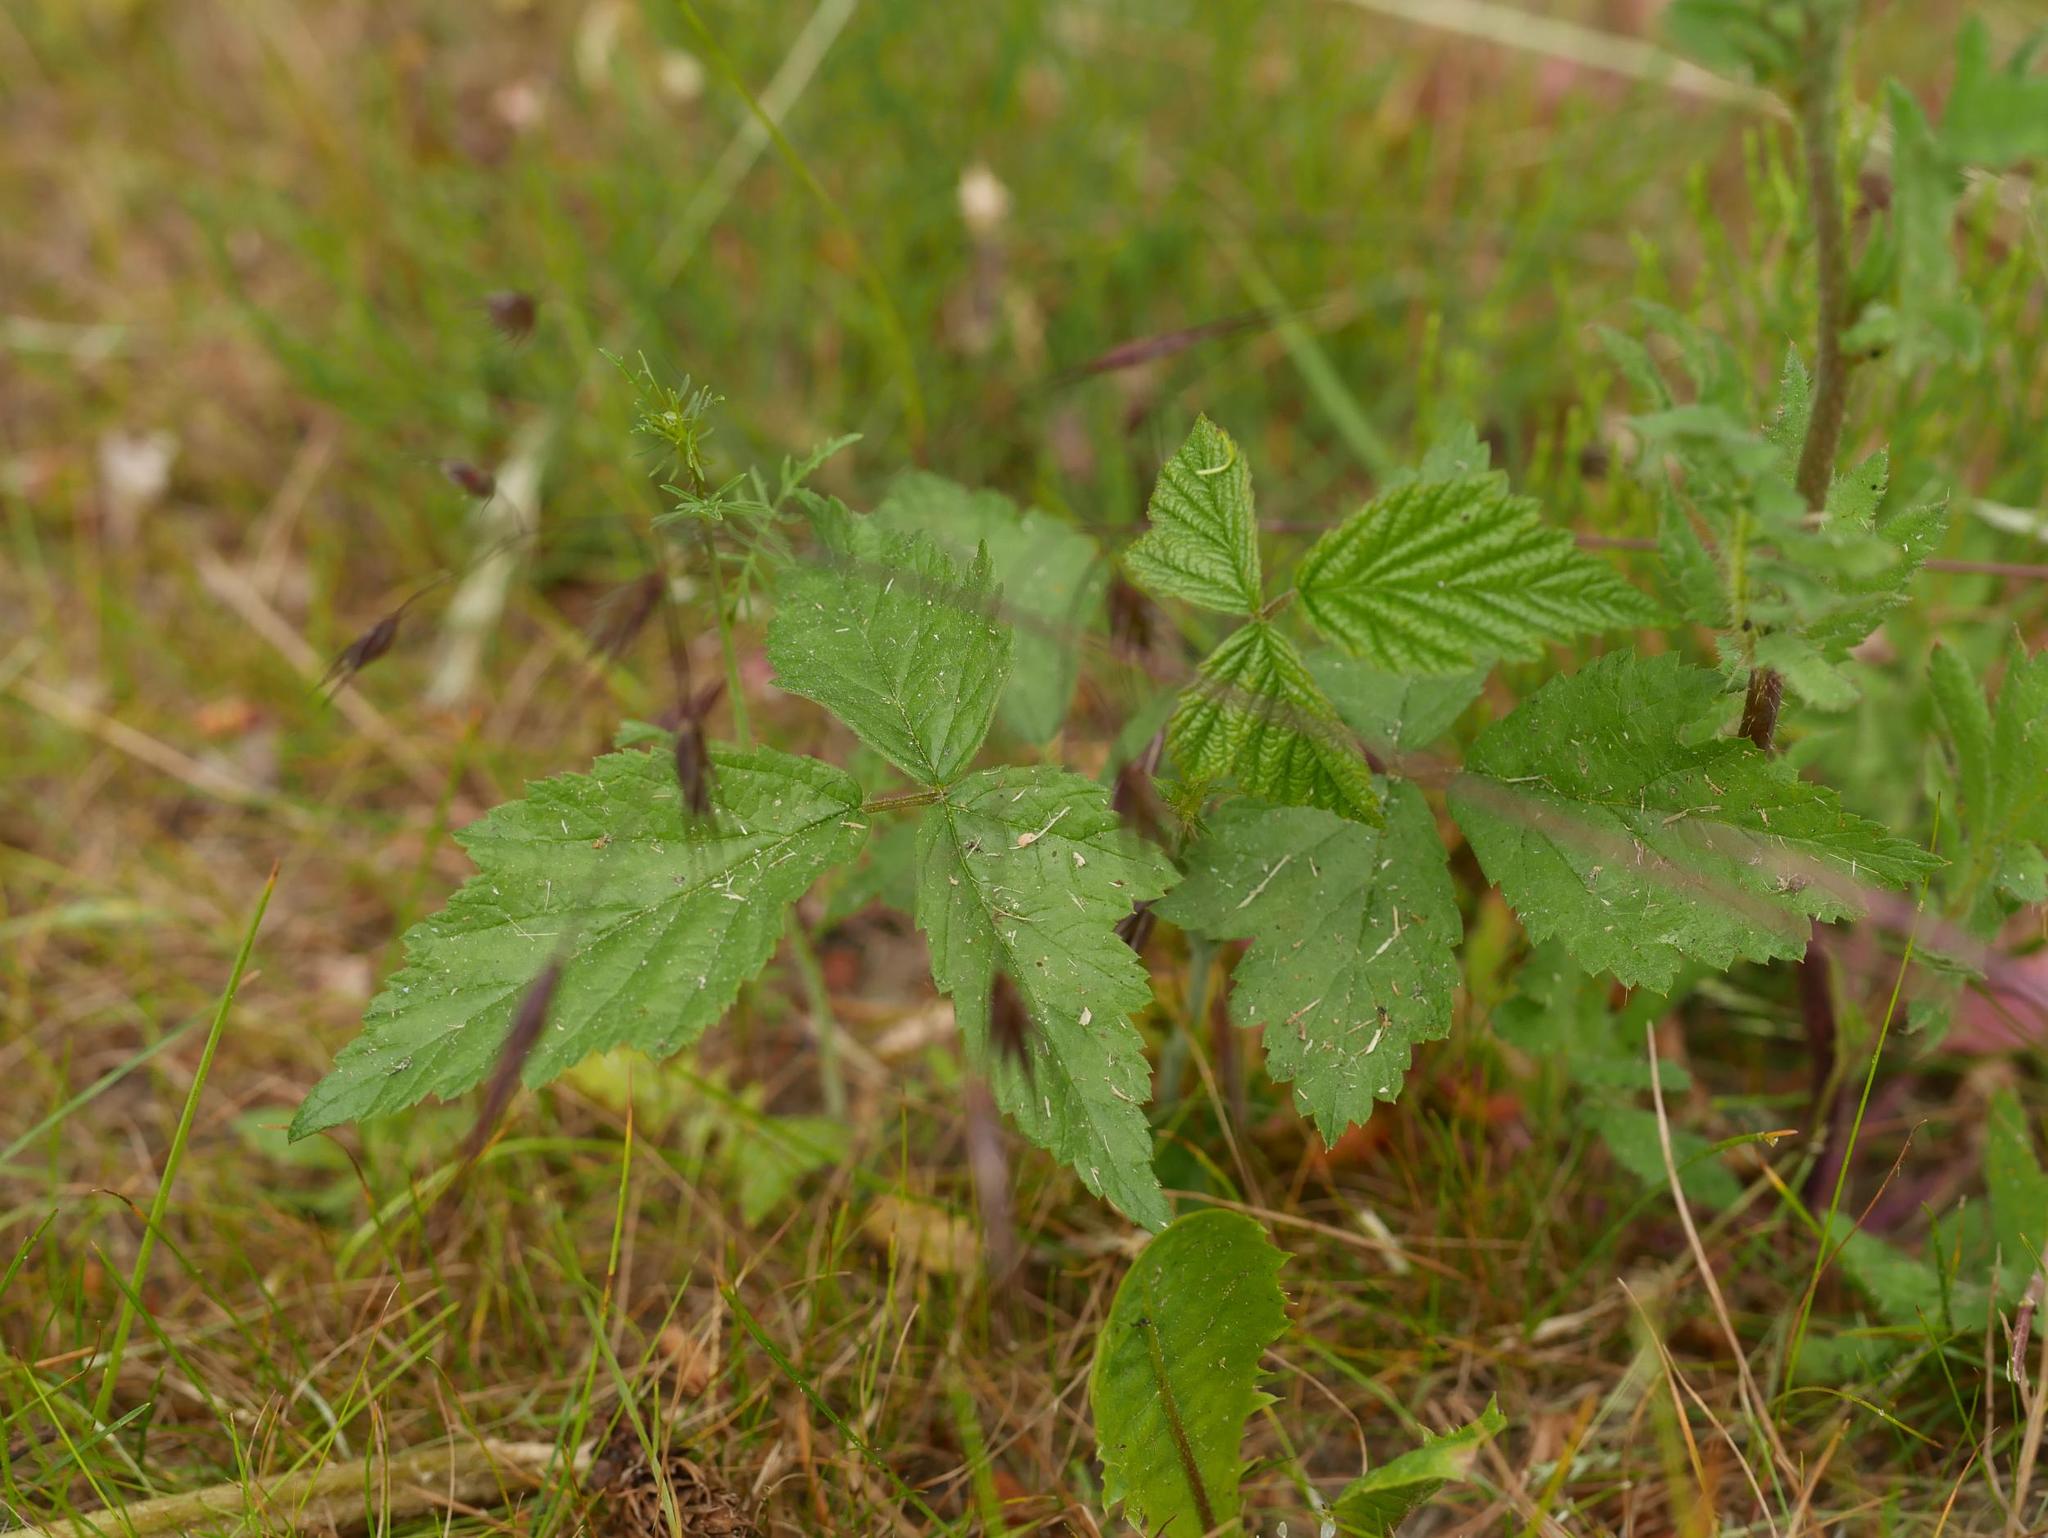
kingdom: Plantae
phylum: Tracheophyta
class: Magnoliopsida
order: Rosales
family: Rosaceae
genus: Rubus
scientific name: Rubus caesius
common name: Dewberry
